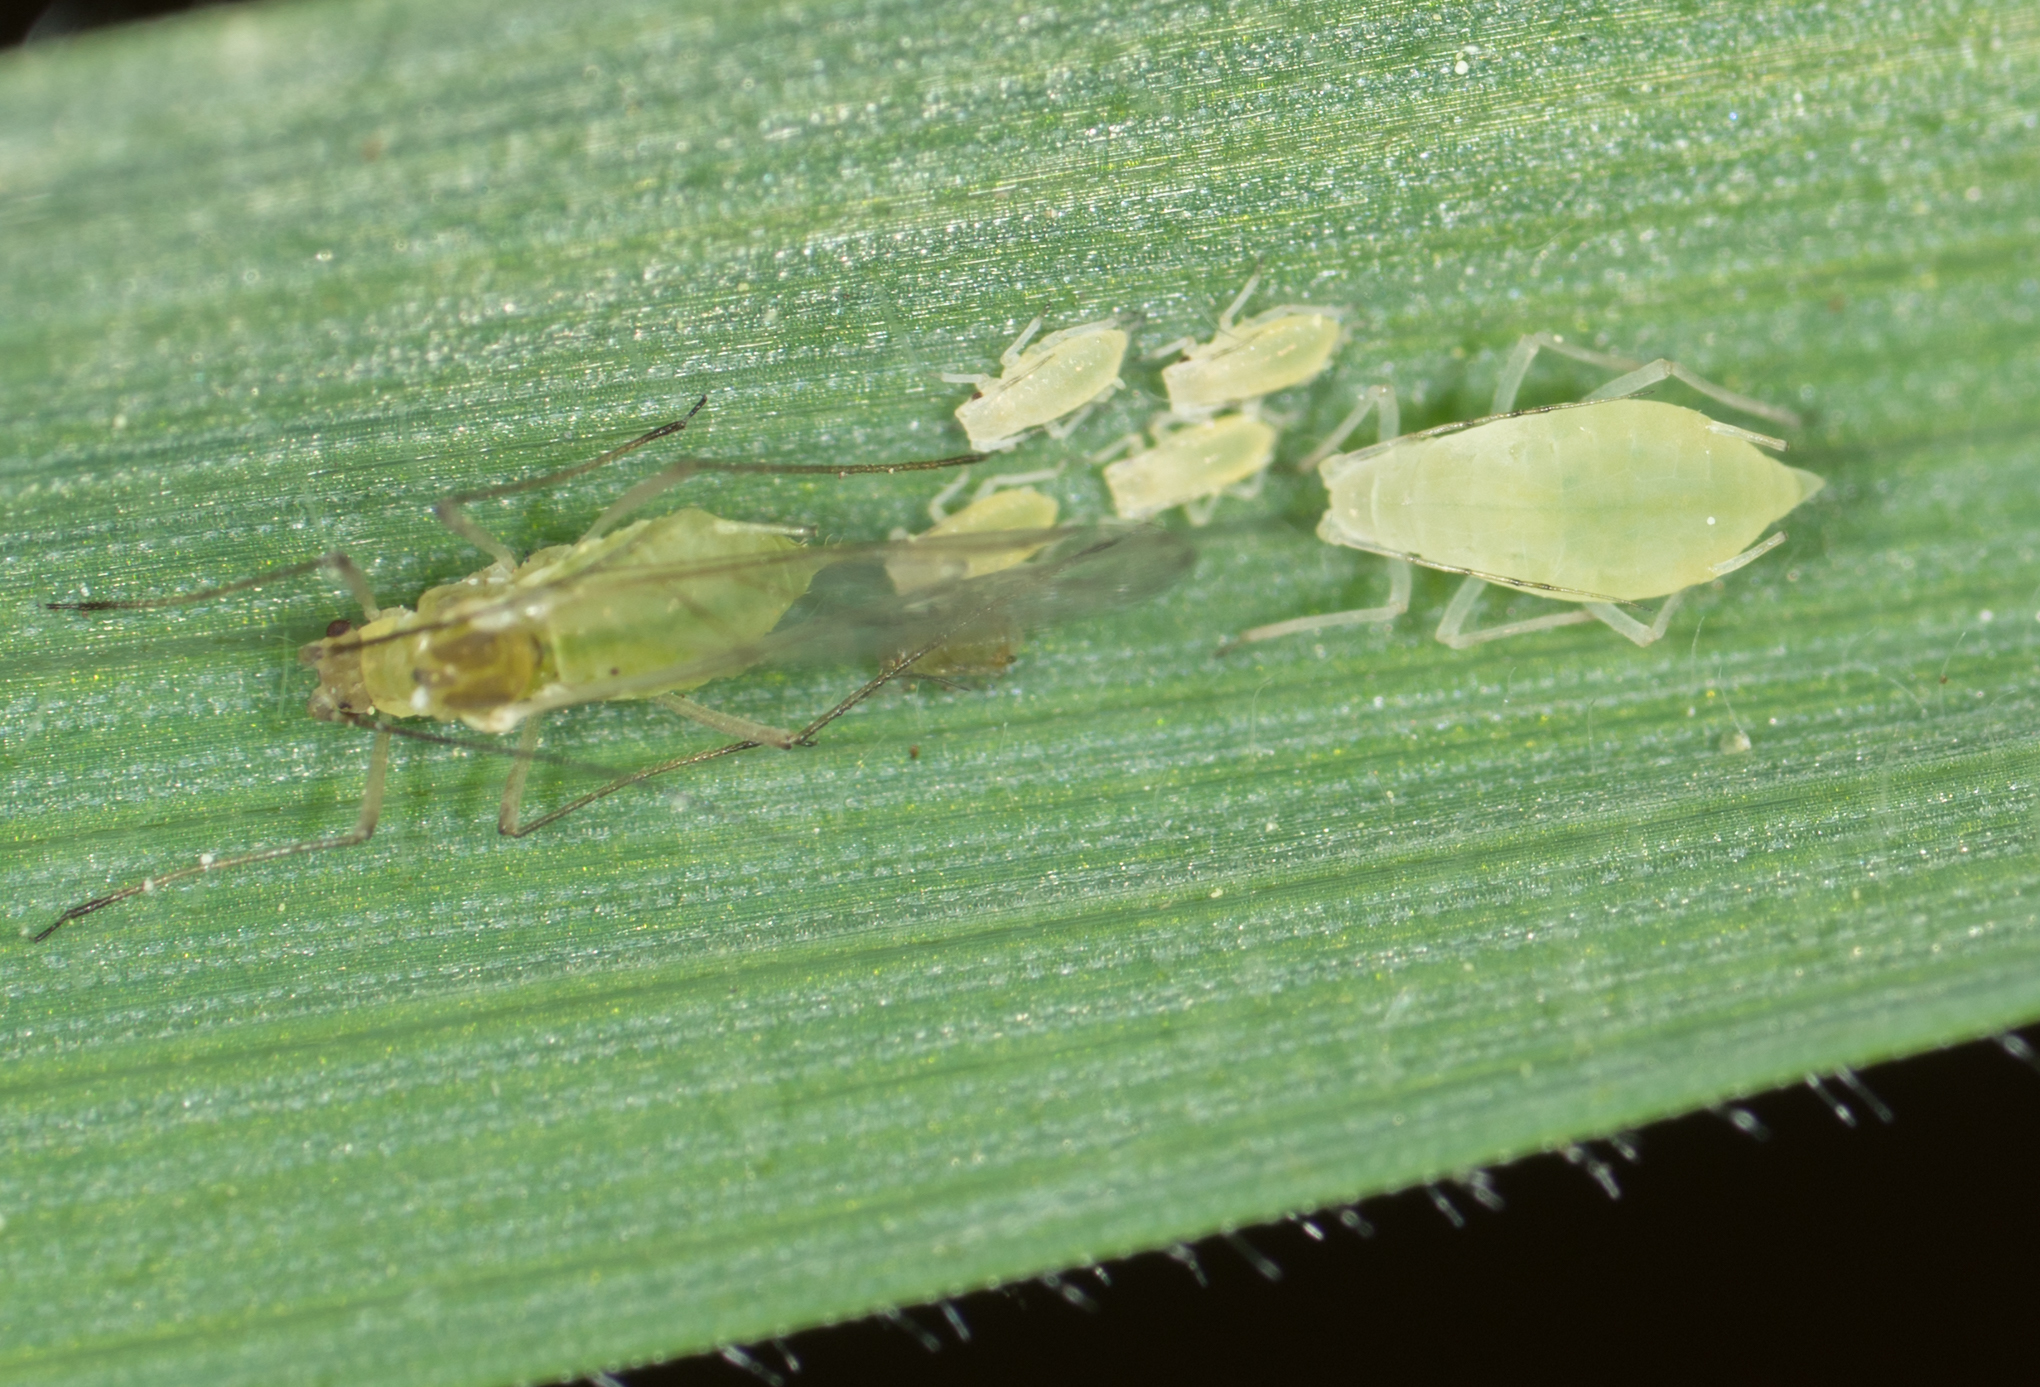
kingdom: Animalia
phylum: Arthropoda
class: Insecta
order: Hemiptera
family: Aphididae
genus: Metopolophium
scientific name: Metopolophium dirhodum
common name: Rose-grass aphid
